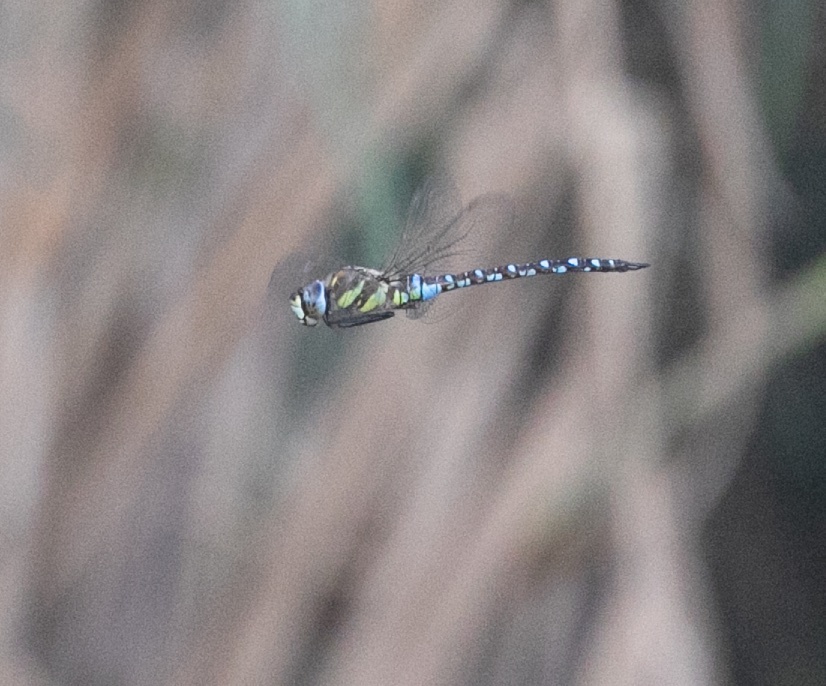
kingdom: Animalia
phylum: Arthropoda
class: Insecta
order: Odonata
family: Aeshnidae
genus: Aeshna
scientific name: Aeshna mixta
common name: Migrant hawker
